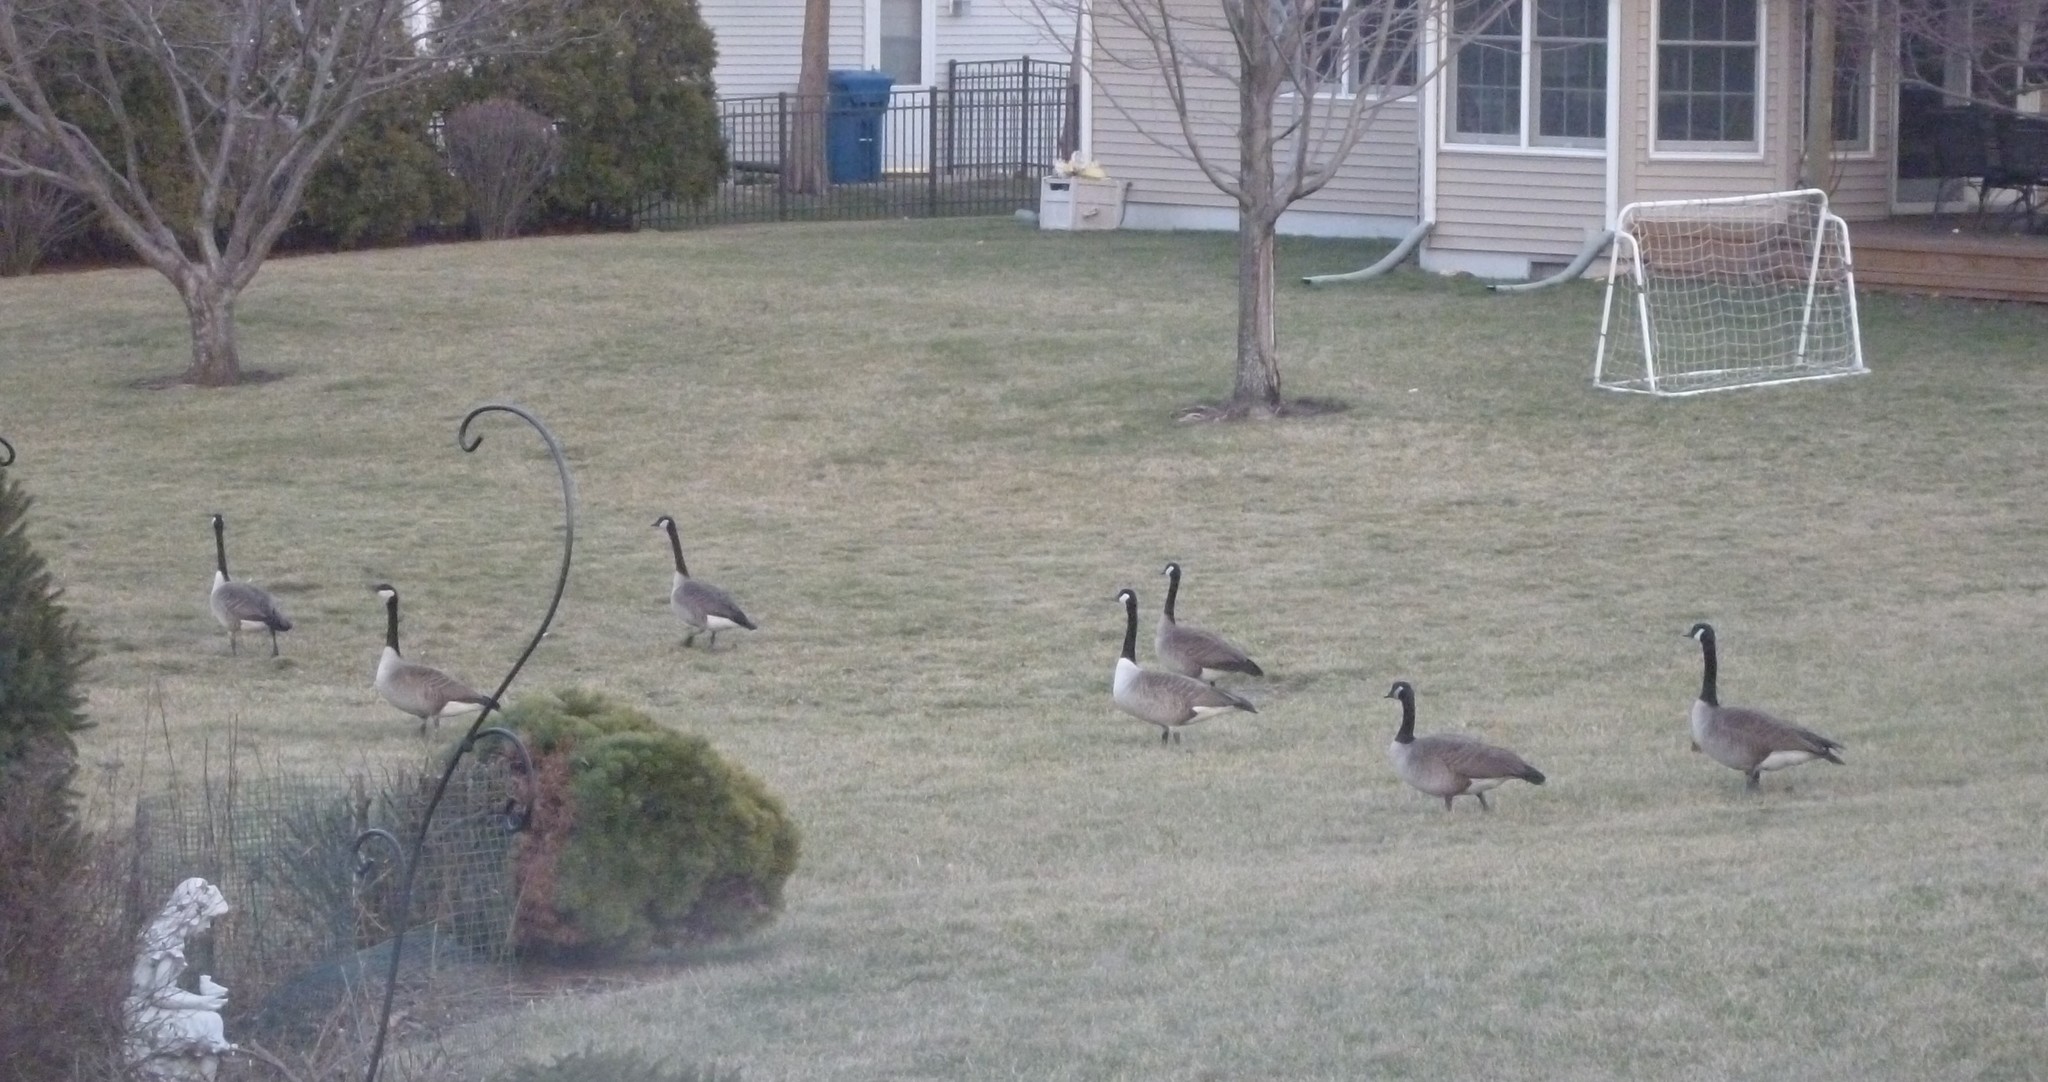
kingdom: Animalia
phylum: Chordata
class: Aves
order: Anseriformes
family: Anatidae
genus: Branta
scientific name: Branta canadensis
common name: Canada goose
